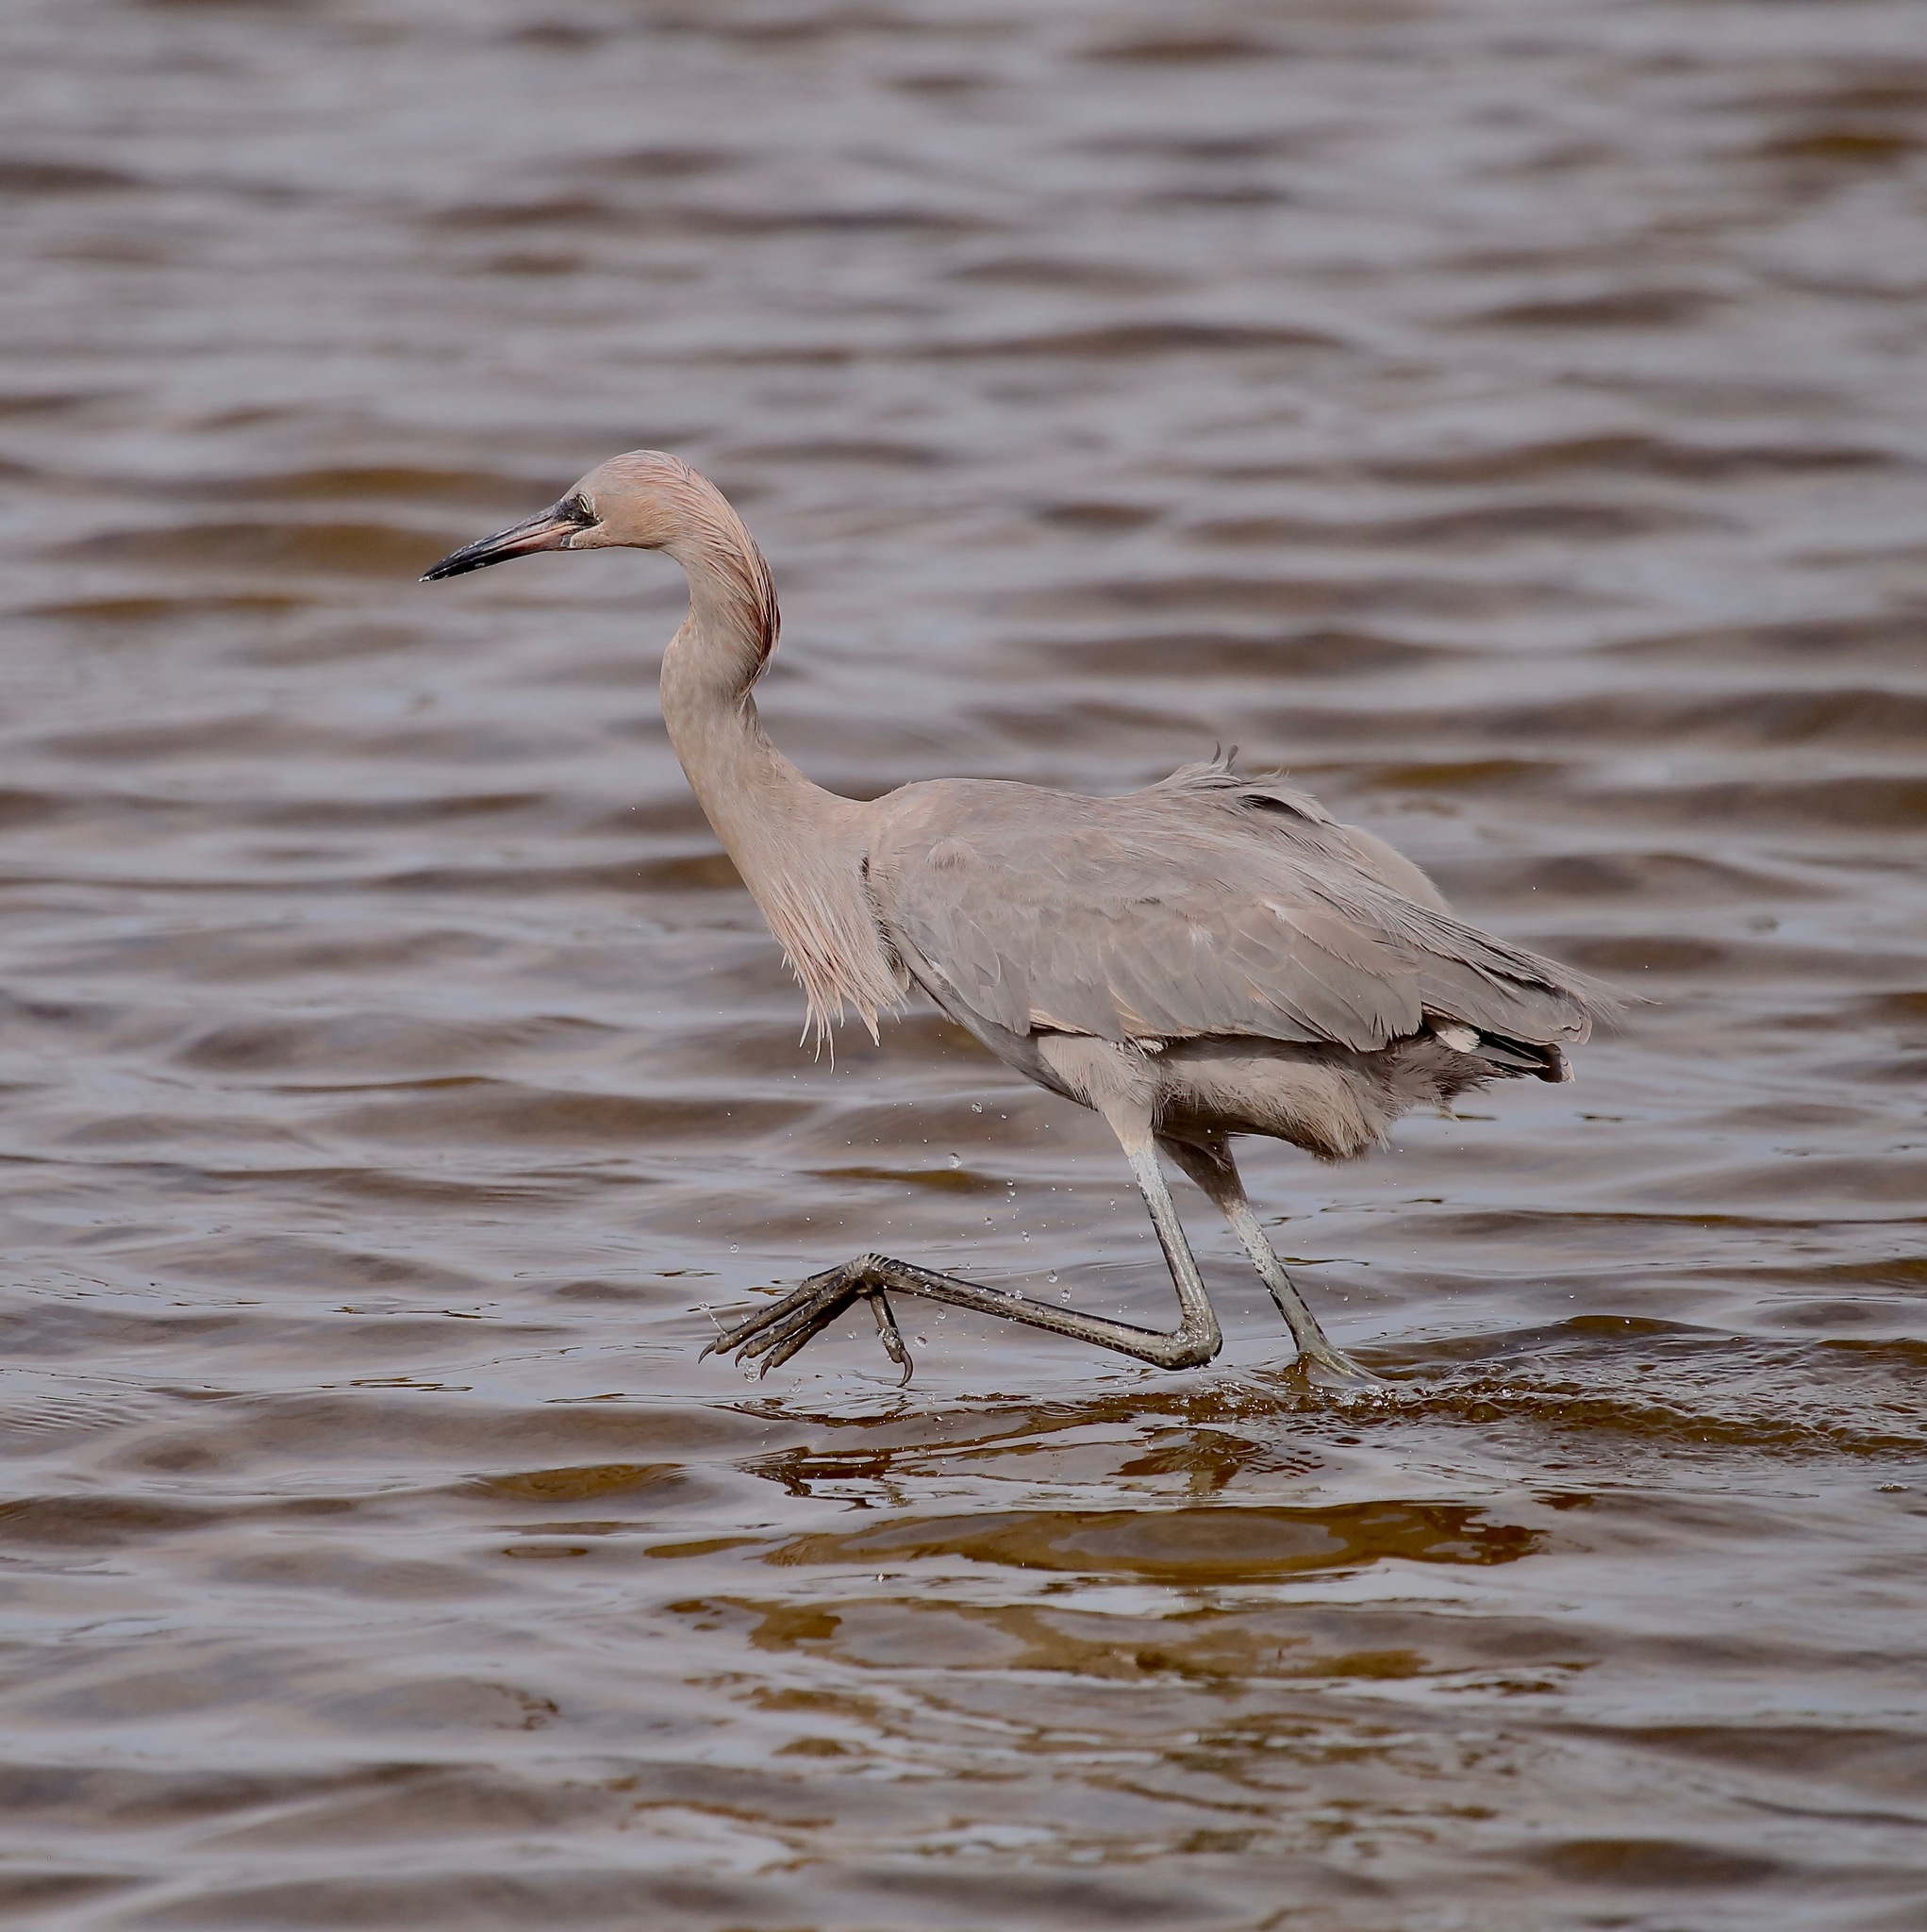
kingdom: Animalia
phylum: Chordata
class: Aves
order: Pelecaniformes
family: Ardeidae
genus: Egretta
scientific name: Egretta rufescens
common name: Reddish egret
